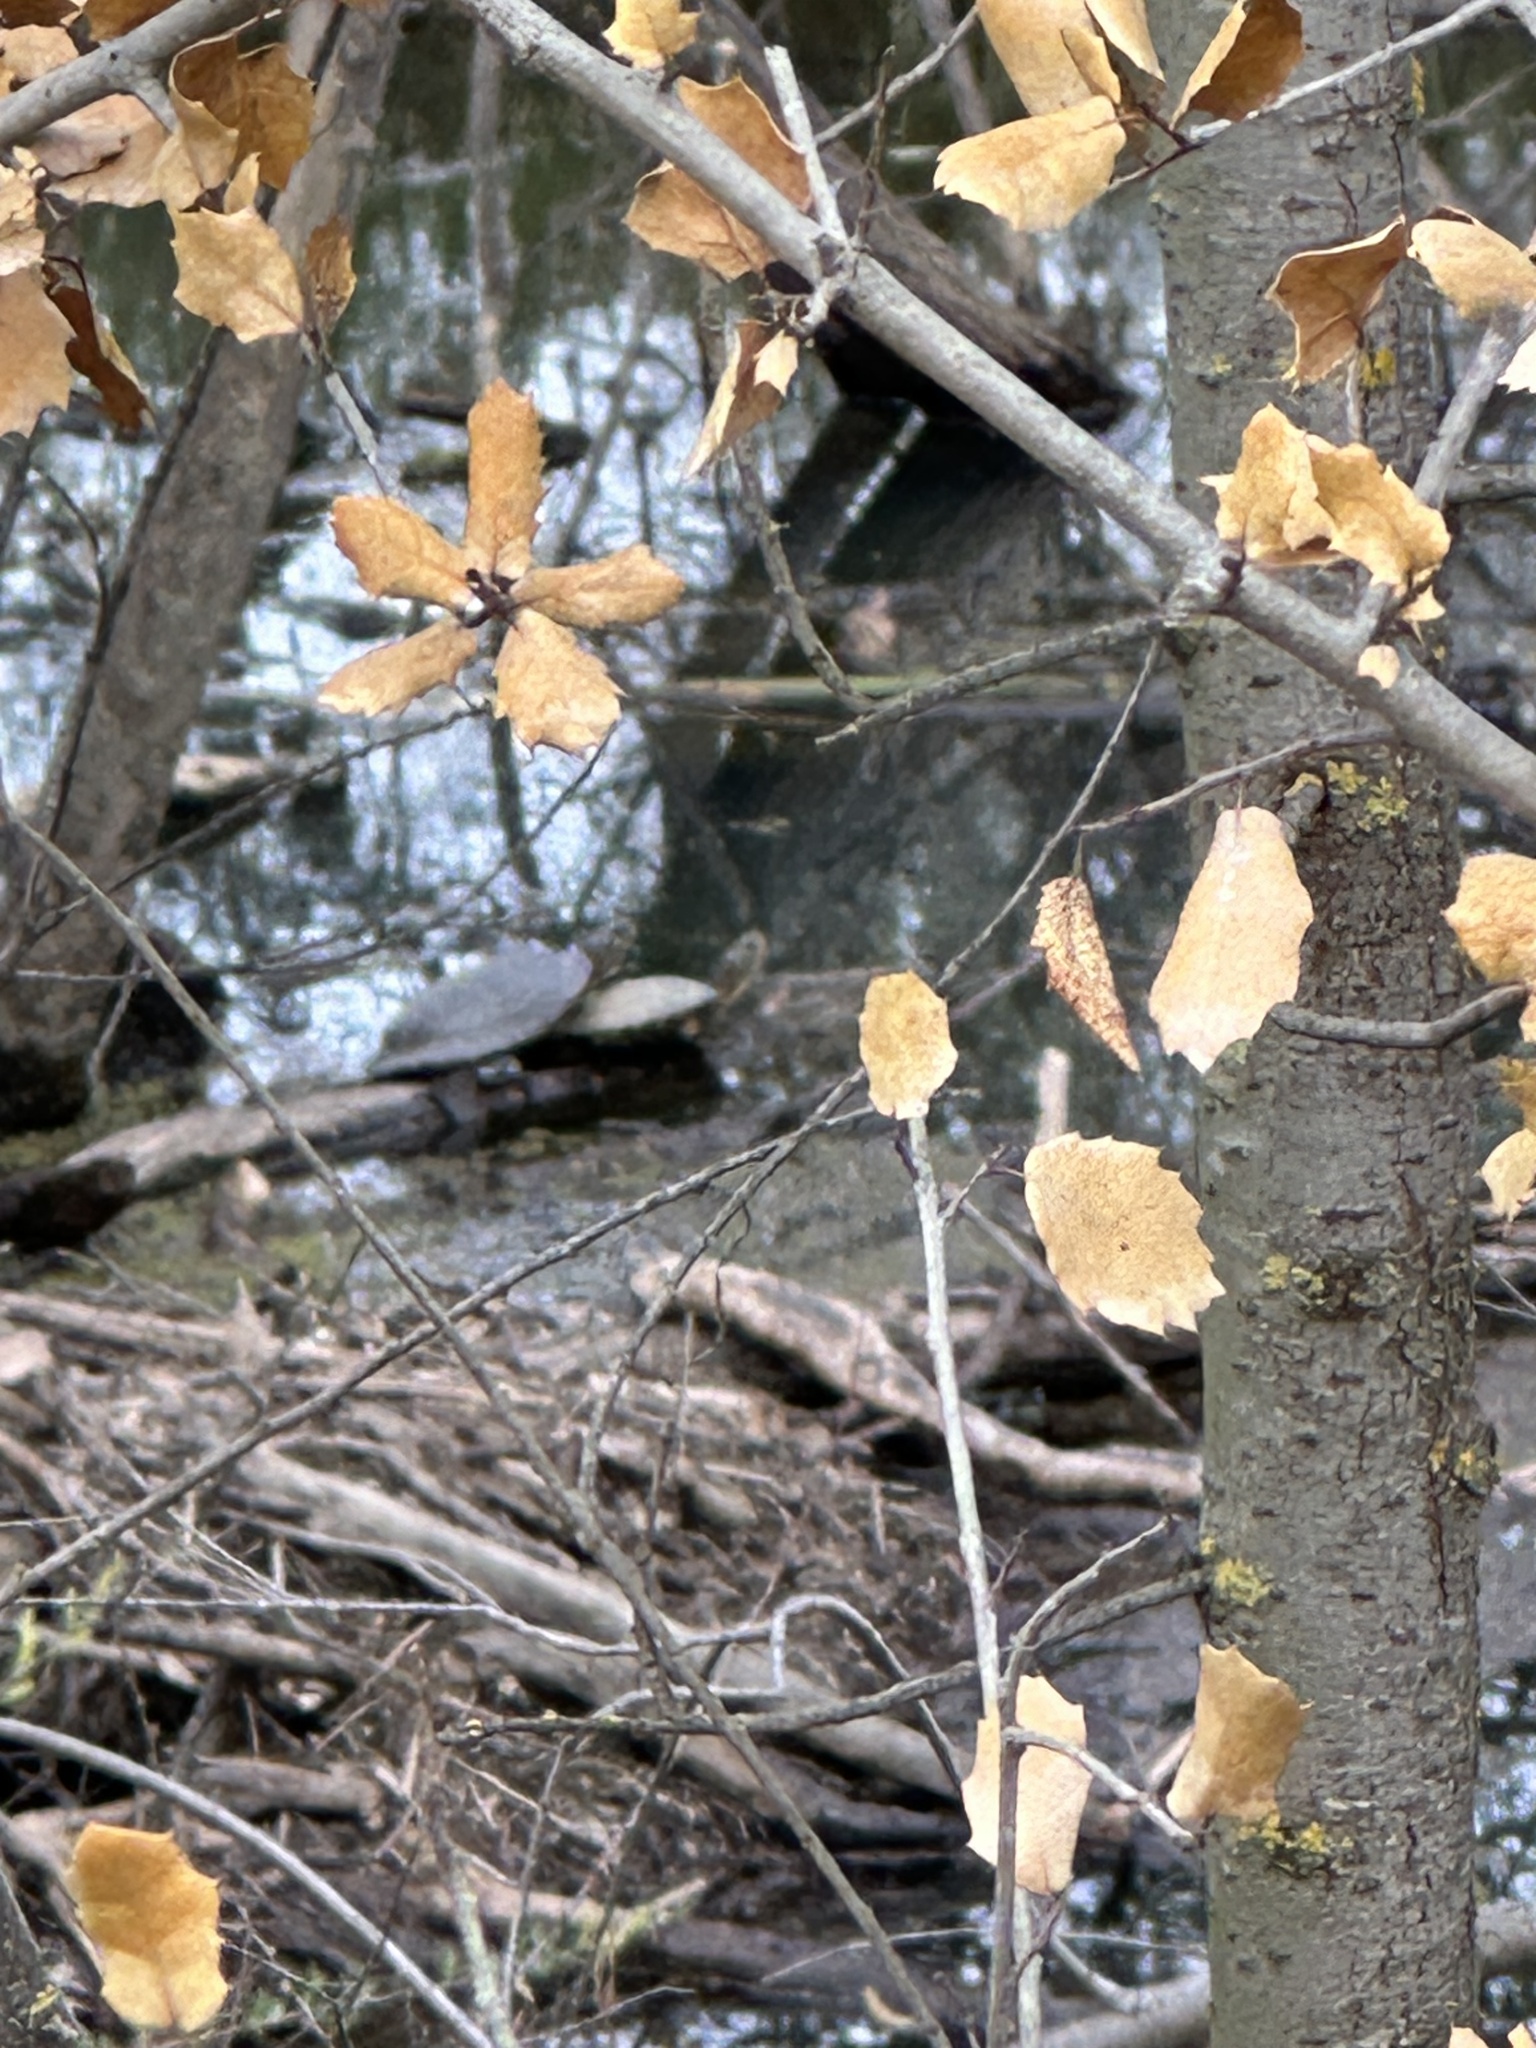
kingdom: Animalia
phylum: Chordata
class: Testudines
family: Emydidae
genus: Actinemys
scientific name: Actinemys marmorata
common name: Western pond turtle
